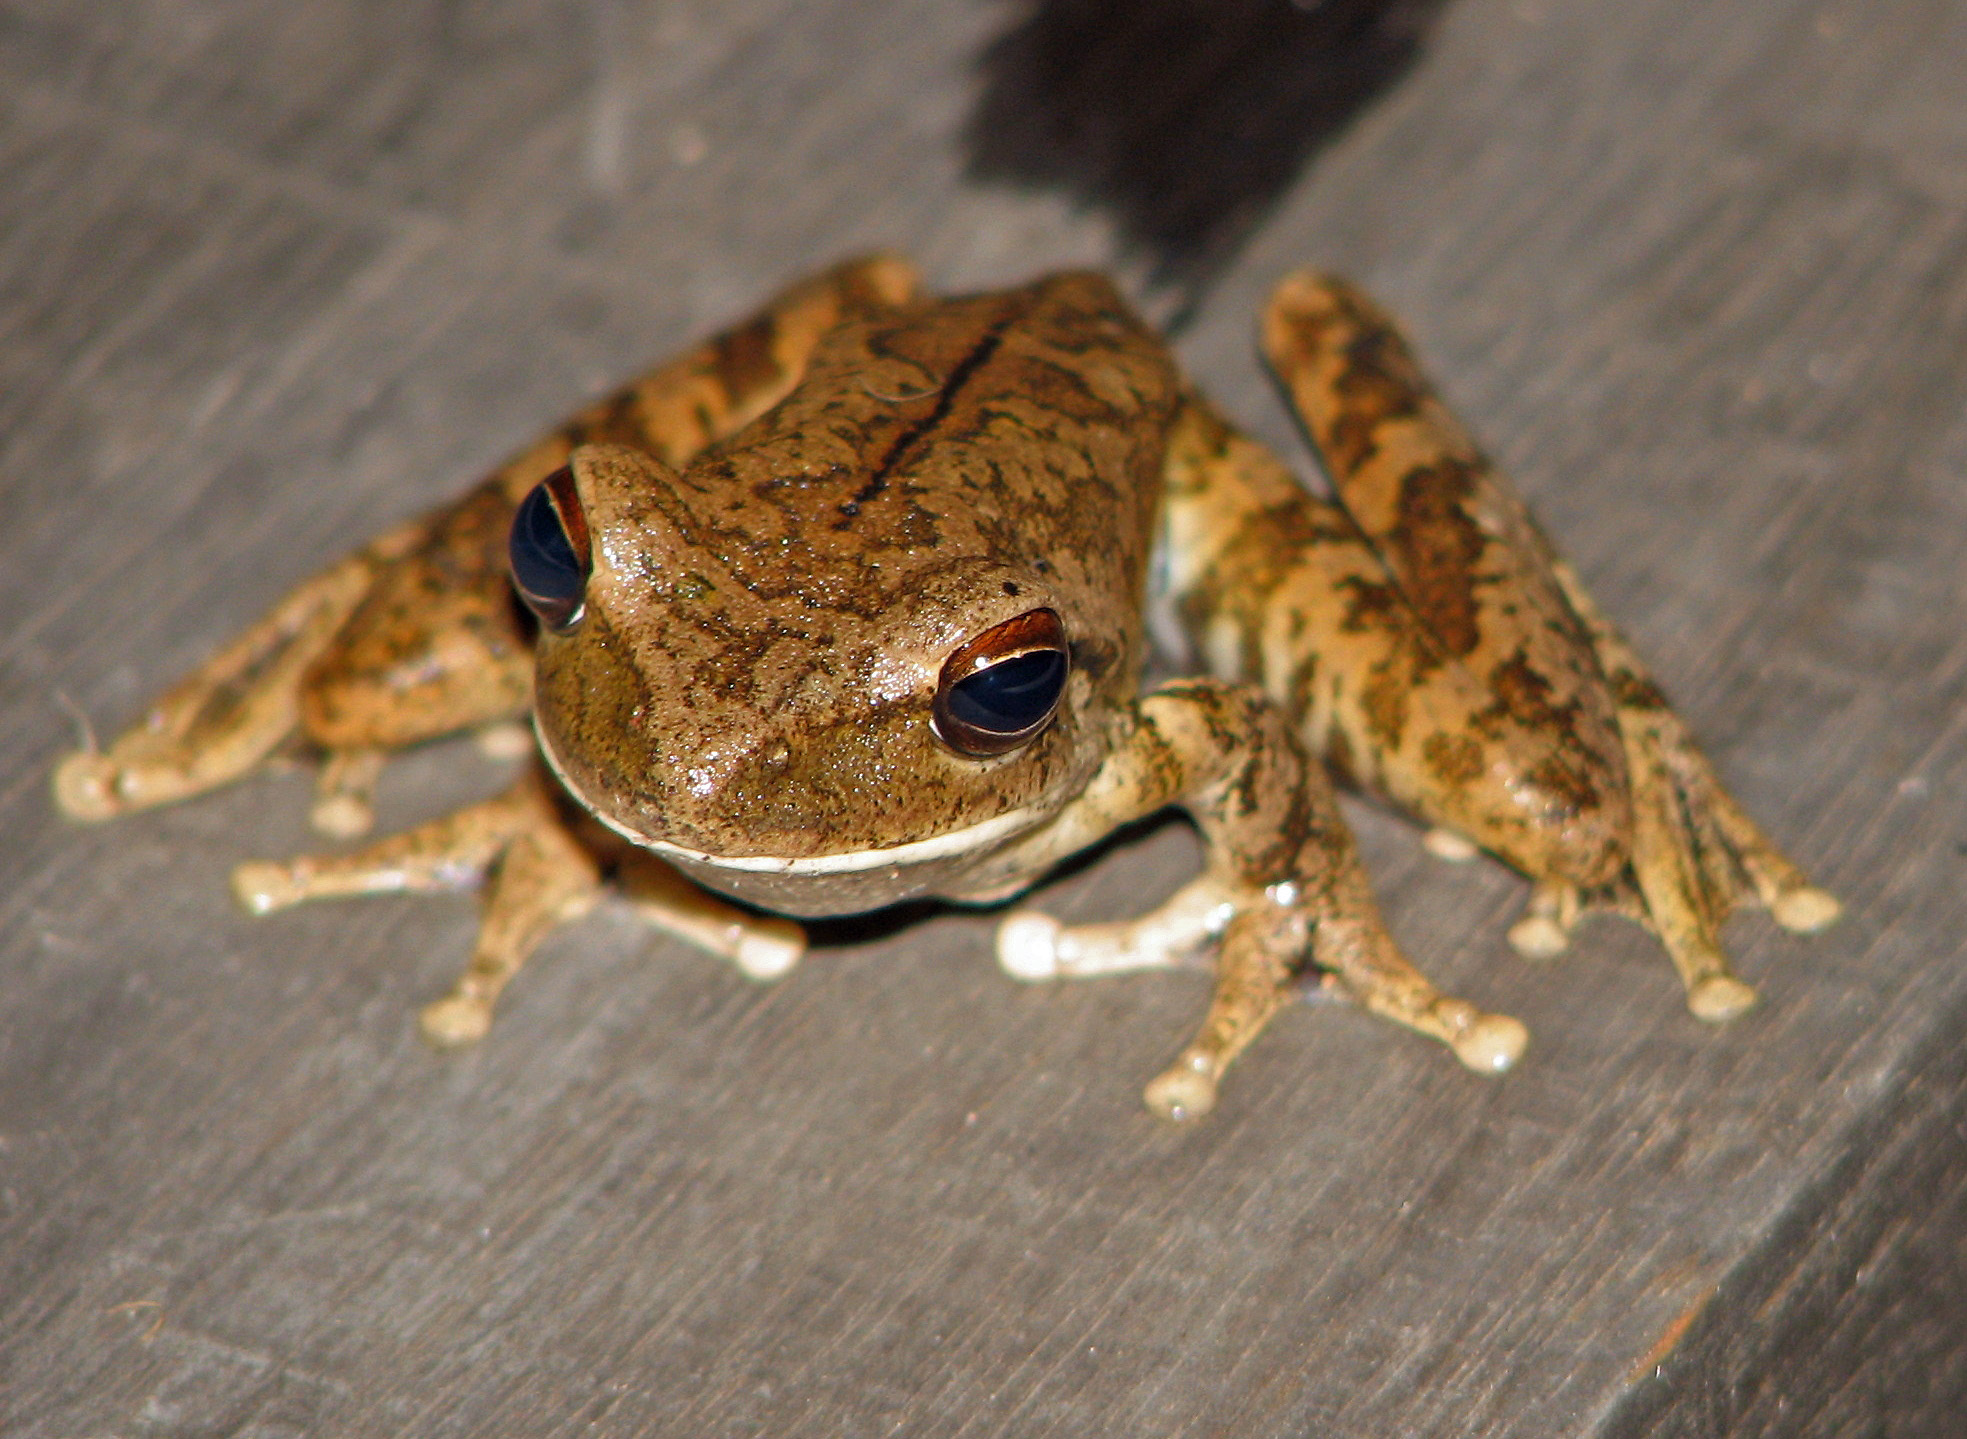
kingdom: Animalia
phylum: Chordata
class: Amphibia
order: Anura
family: Hylidae
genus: Boana
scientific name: Boana raniceps
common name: Chaco treefrog
